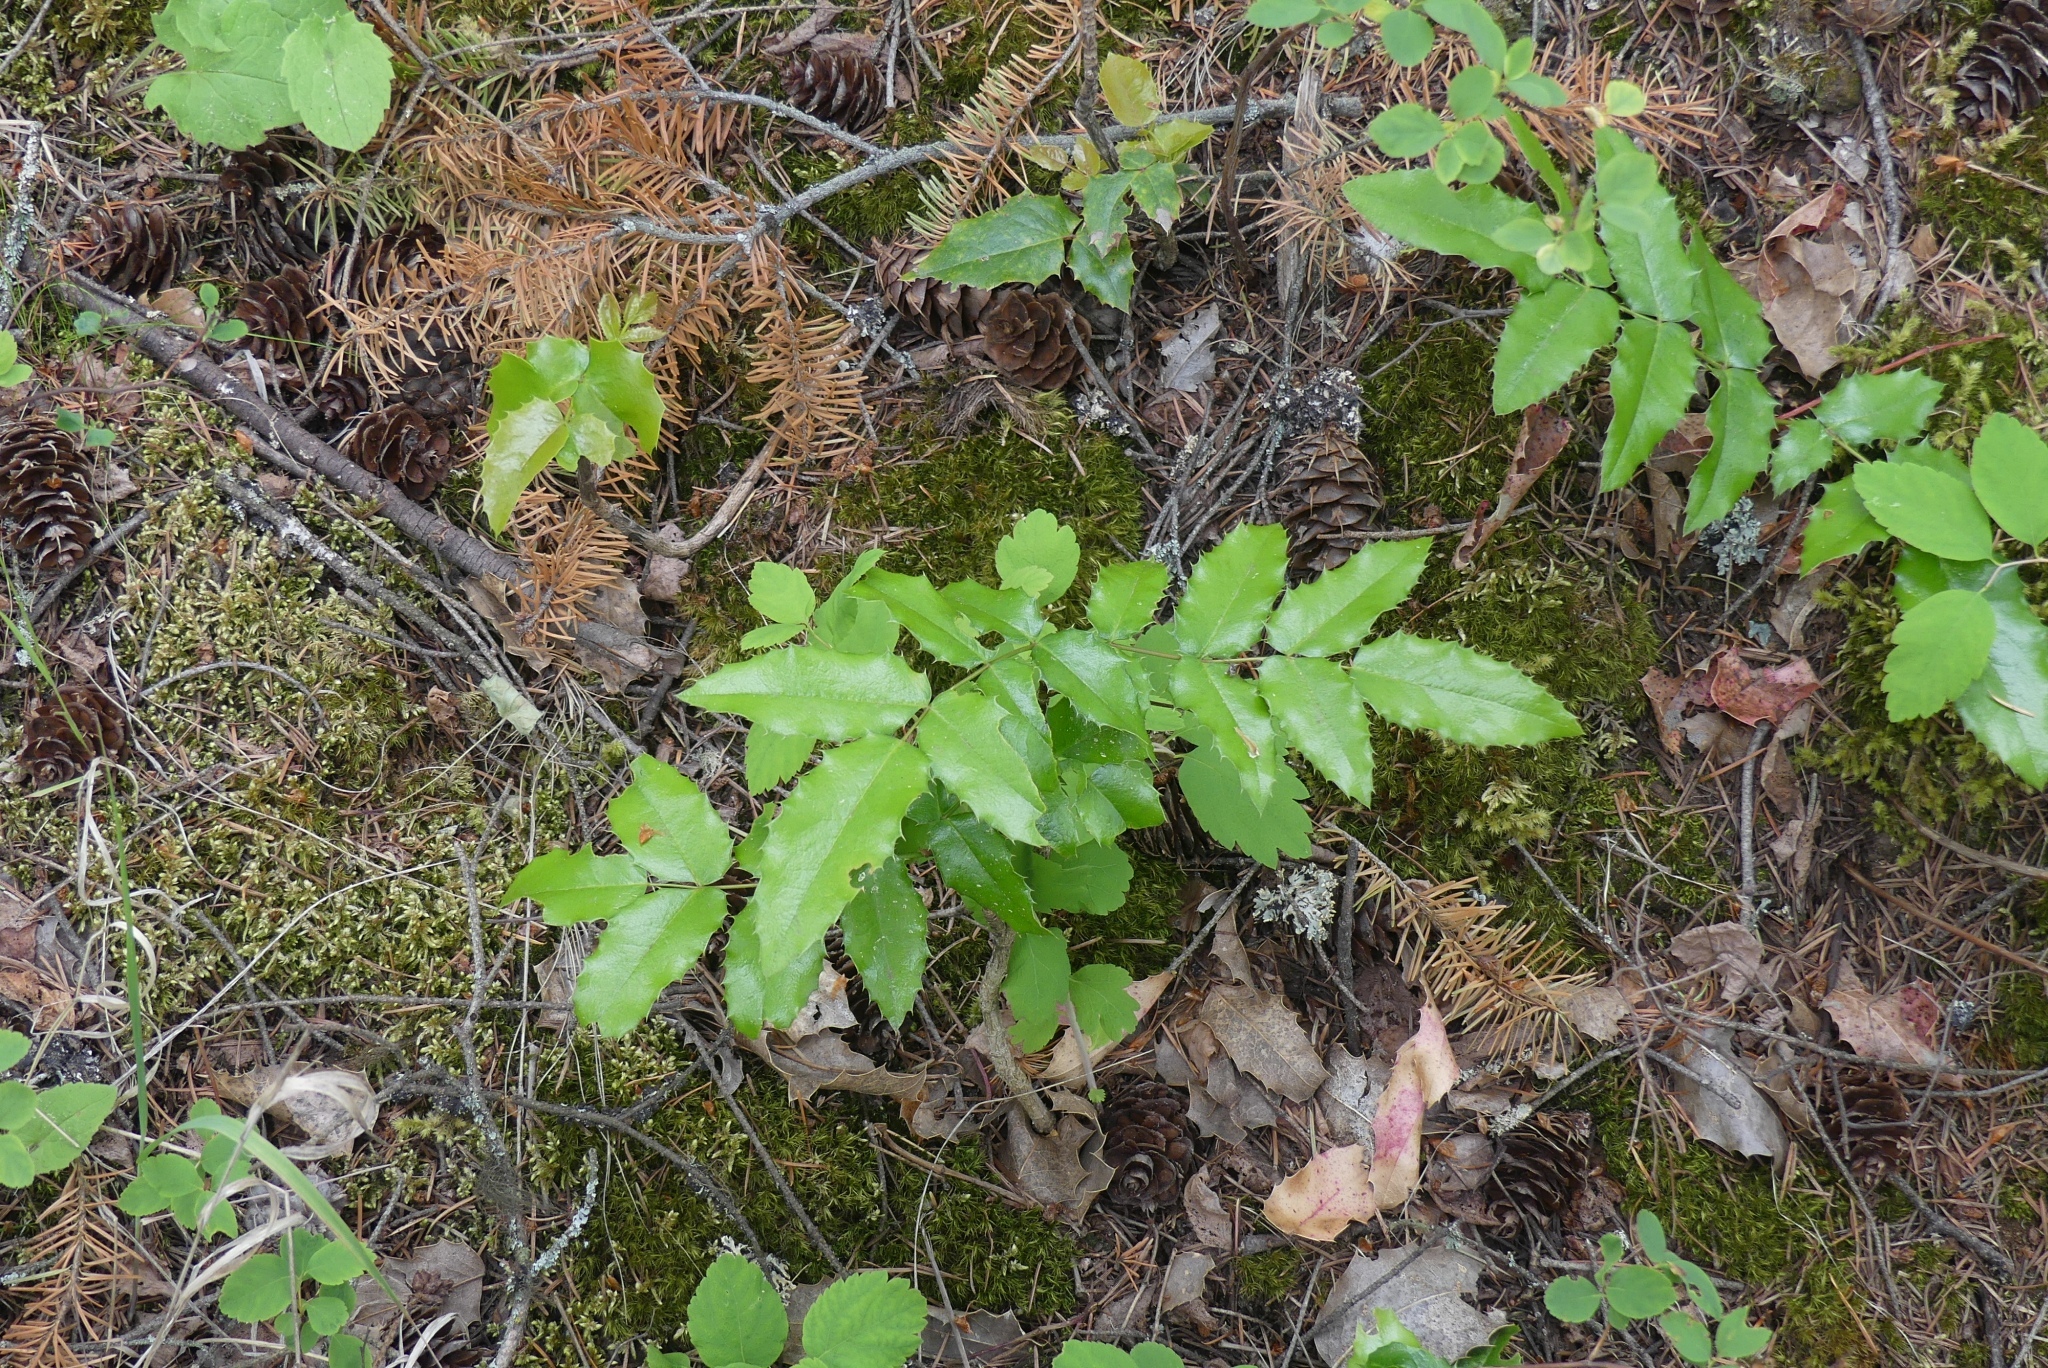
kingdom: Plantae
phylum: Tracheophyta
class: Magnoliopsida
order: Ranunculales
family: Berberidaceae
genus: Mahonia
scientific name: Mahonia aquifolium
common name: Oregon-grape
